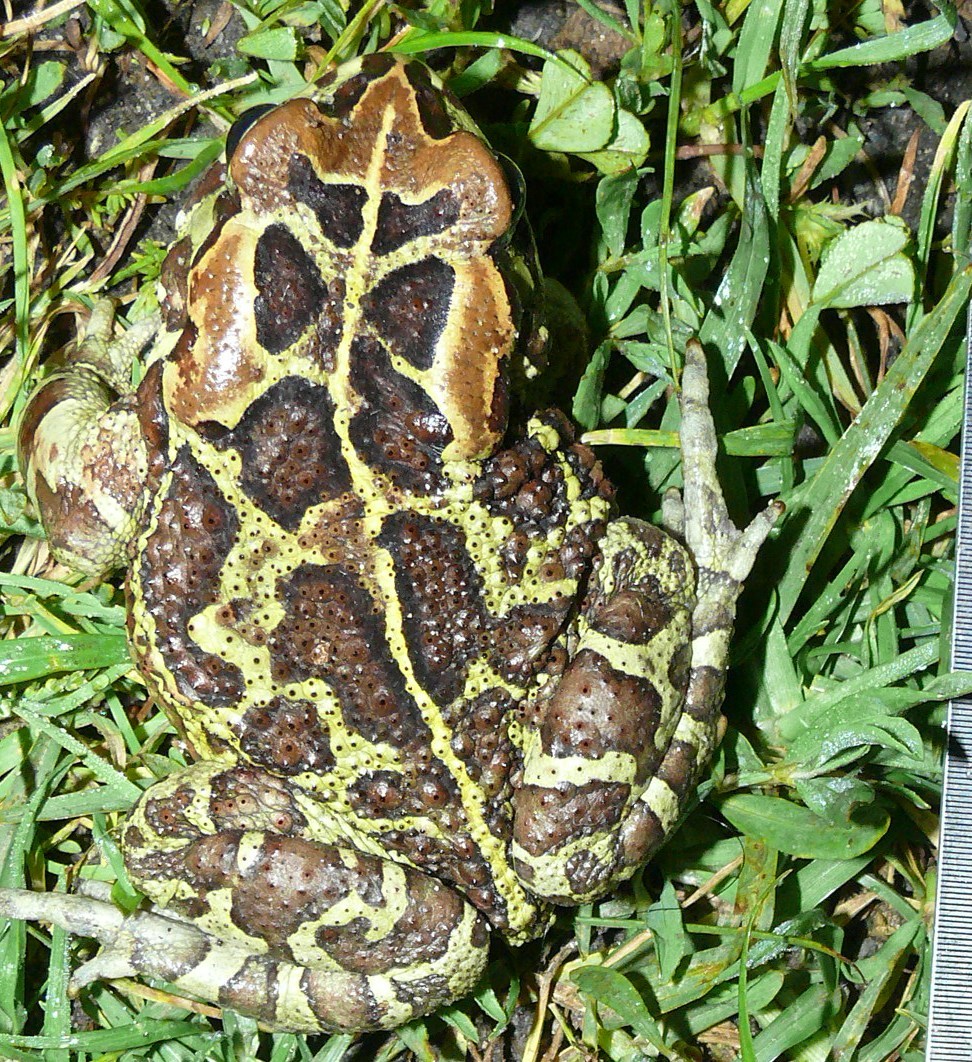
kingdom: Animalia
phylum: Chordata
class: Amphibia
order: Anura
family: Bufonidae
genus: Sclerophrys
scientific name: Sclerophrys pantherina
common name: Panther toad
